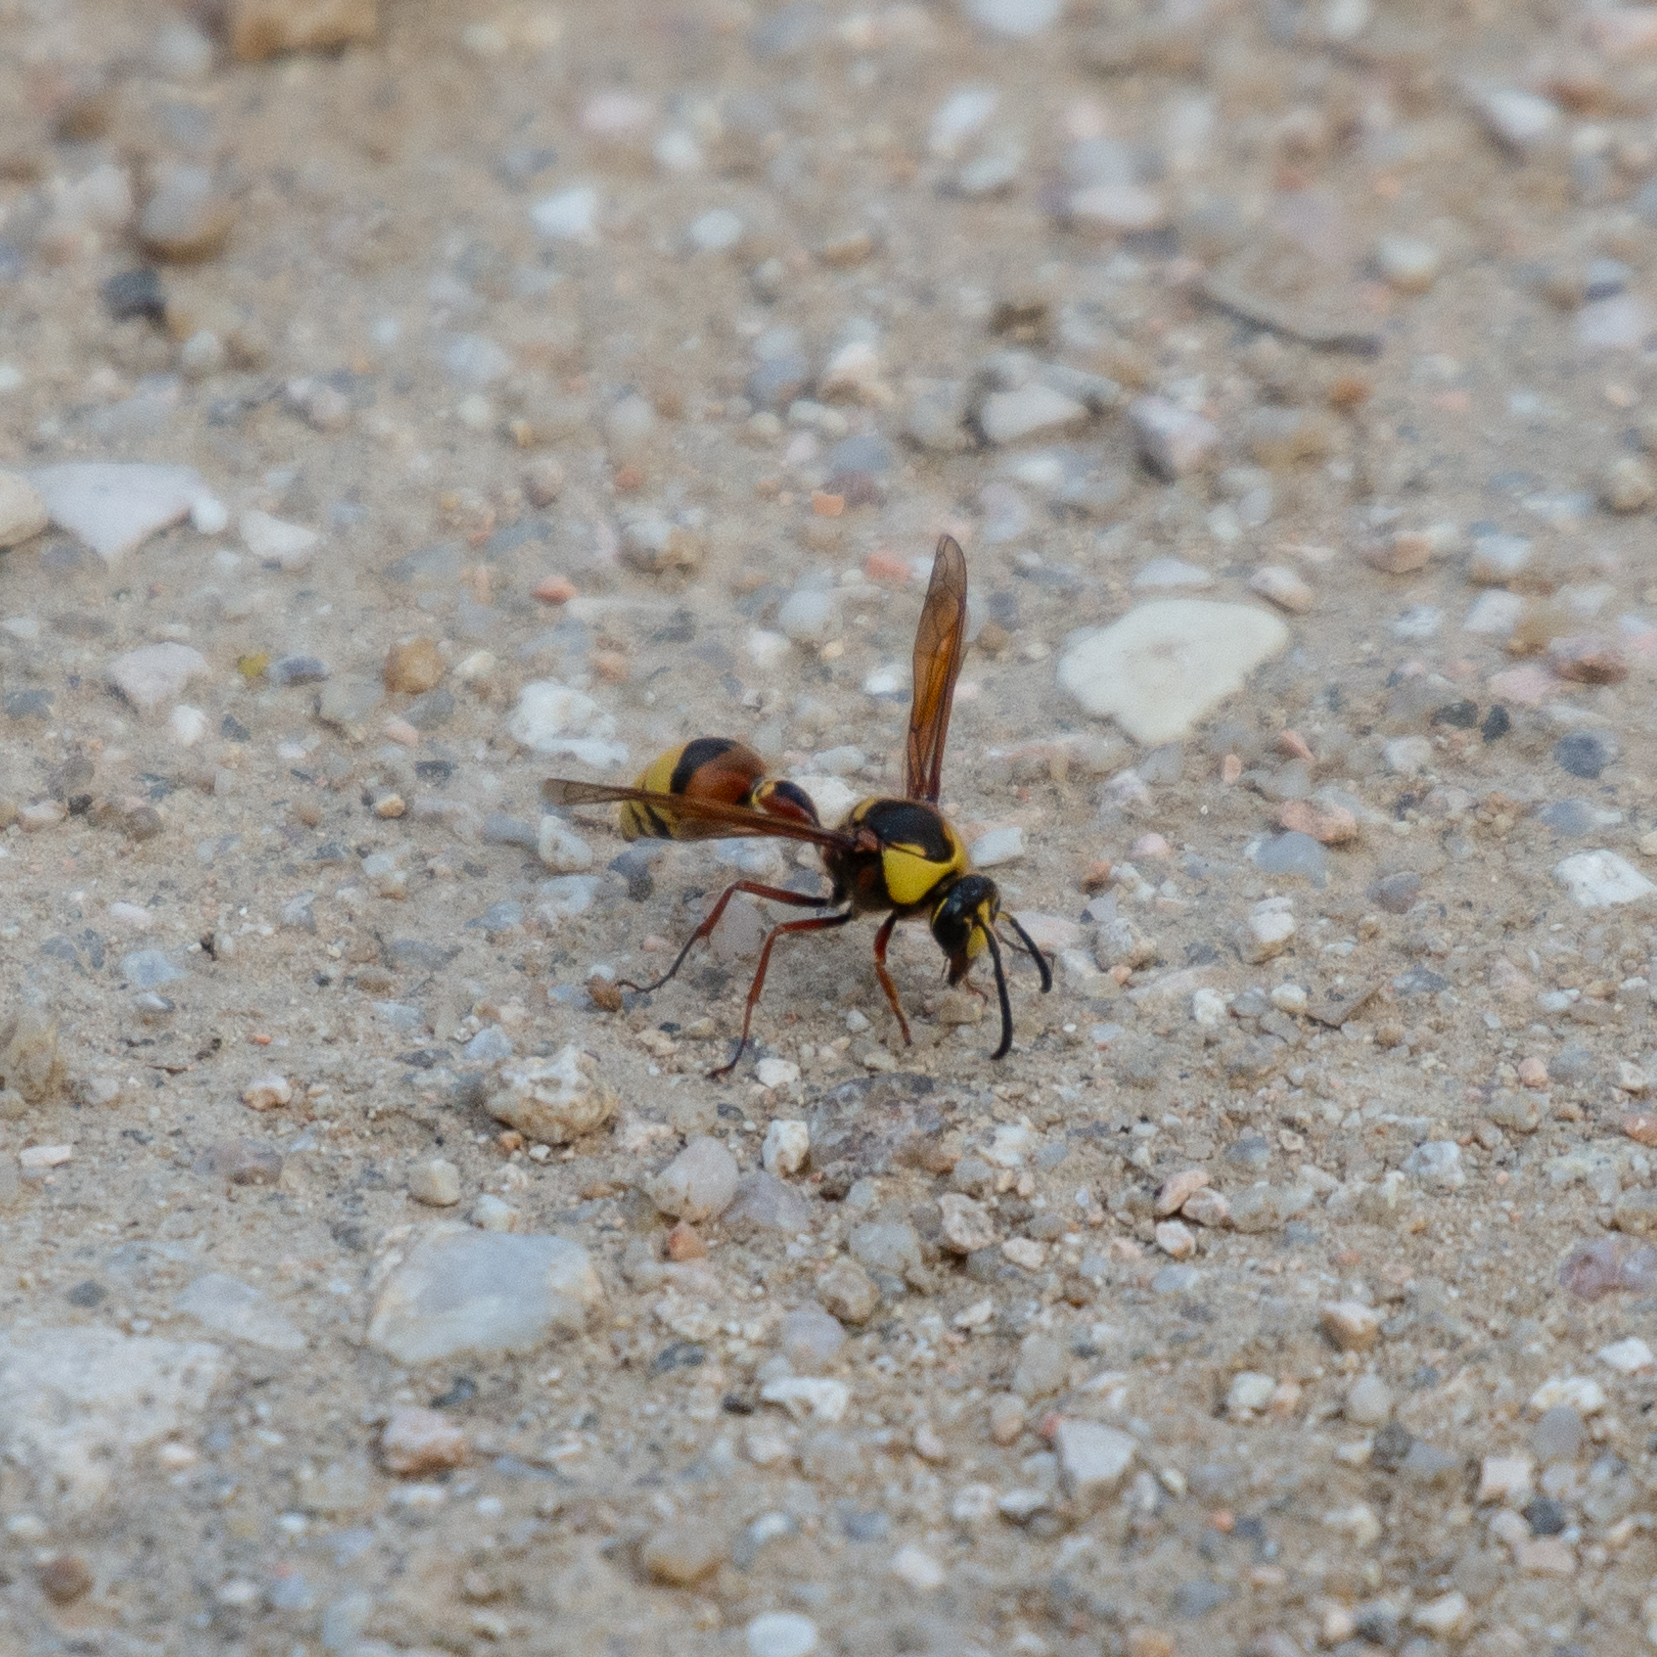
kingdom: Animalia
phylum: Arthropoda
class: Insecta
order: Hymenoptera
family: Eumenidae
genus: Delta
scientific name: Delta unguiculatum
